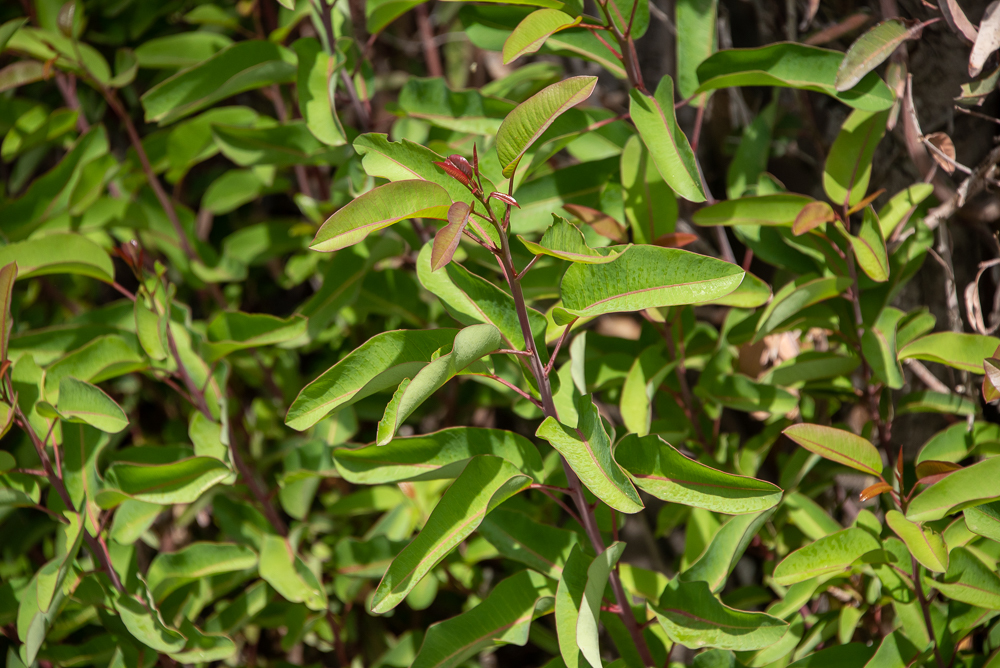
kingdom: Plantae
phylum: Tracheophyta
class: Magnoliopsida
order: Sapindales
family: Anacardiaceae
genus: Malosma
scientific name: Malosma laurina
